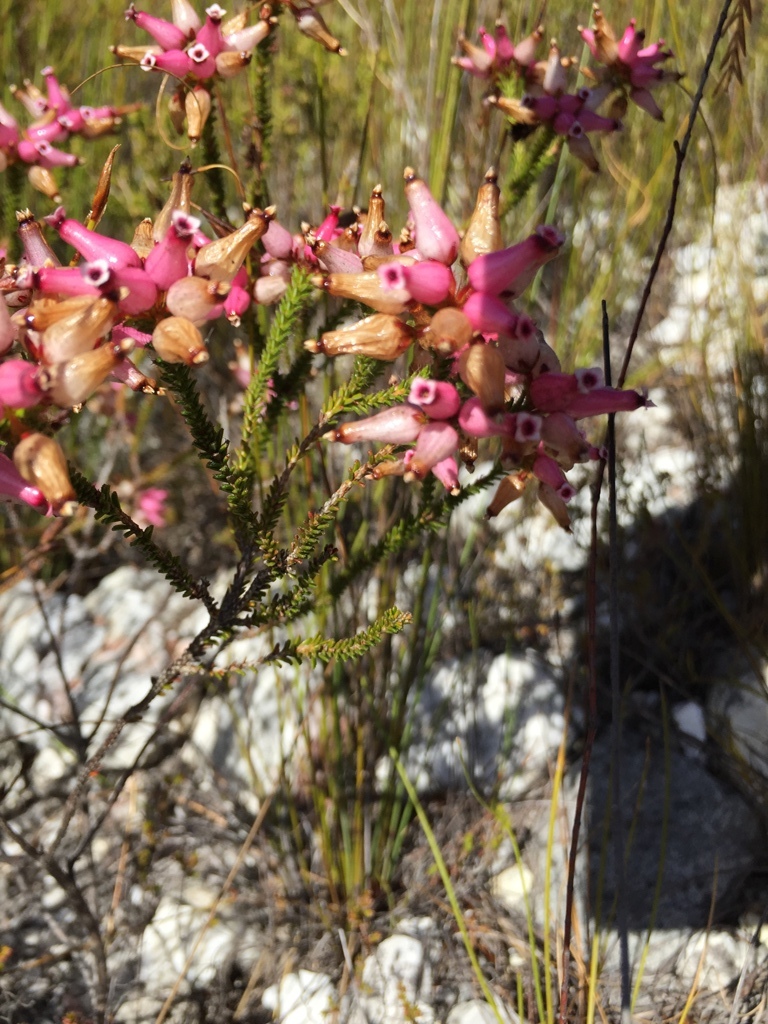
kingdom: Plantae
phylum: Tracheophyta
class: Magnoliopsida
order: Ericales
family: Ericaceae
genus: Erica
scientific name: Erica retorta
